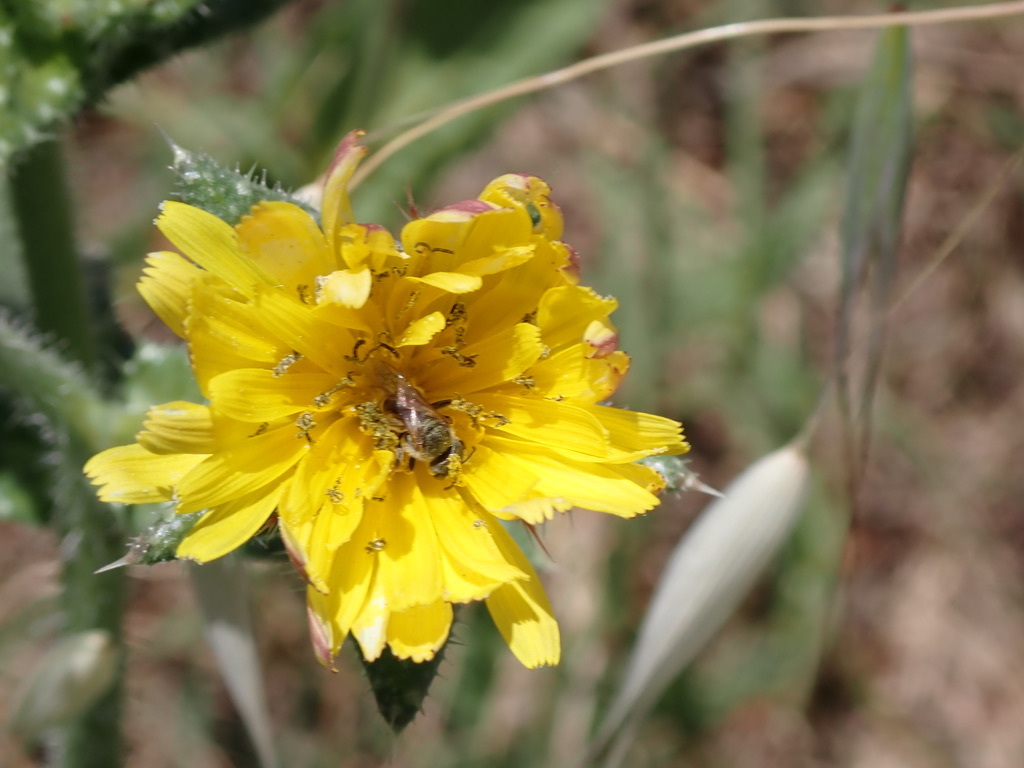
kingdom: Plantae
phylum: Tracheophyta
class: Magnoliopsida
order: Asterales
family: Asteraceae
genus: Helminthotheca
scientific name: Helminthotheca echioides
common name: Ox-tongue
